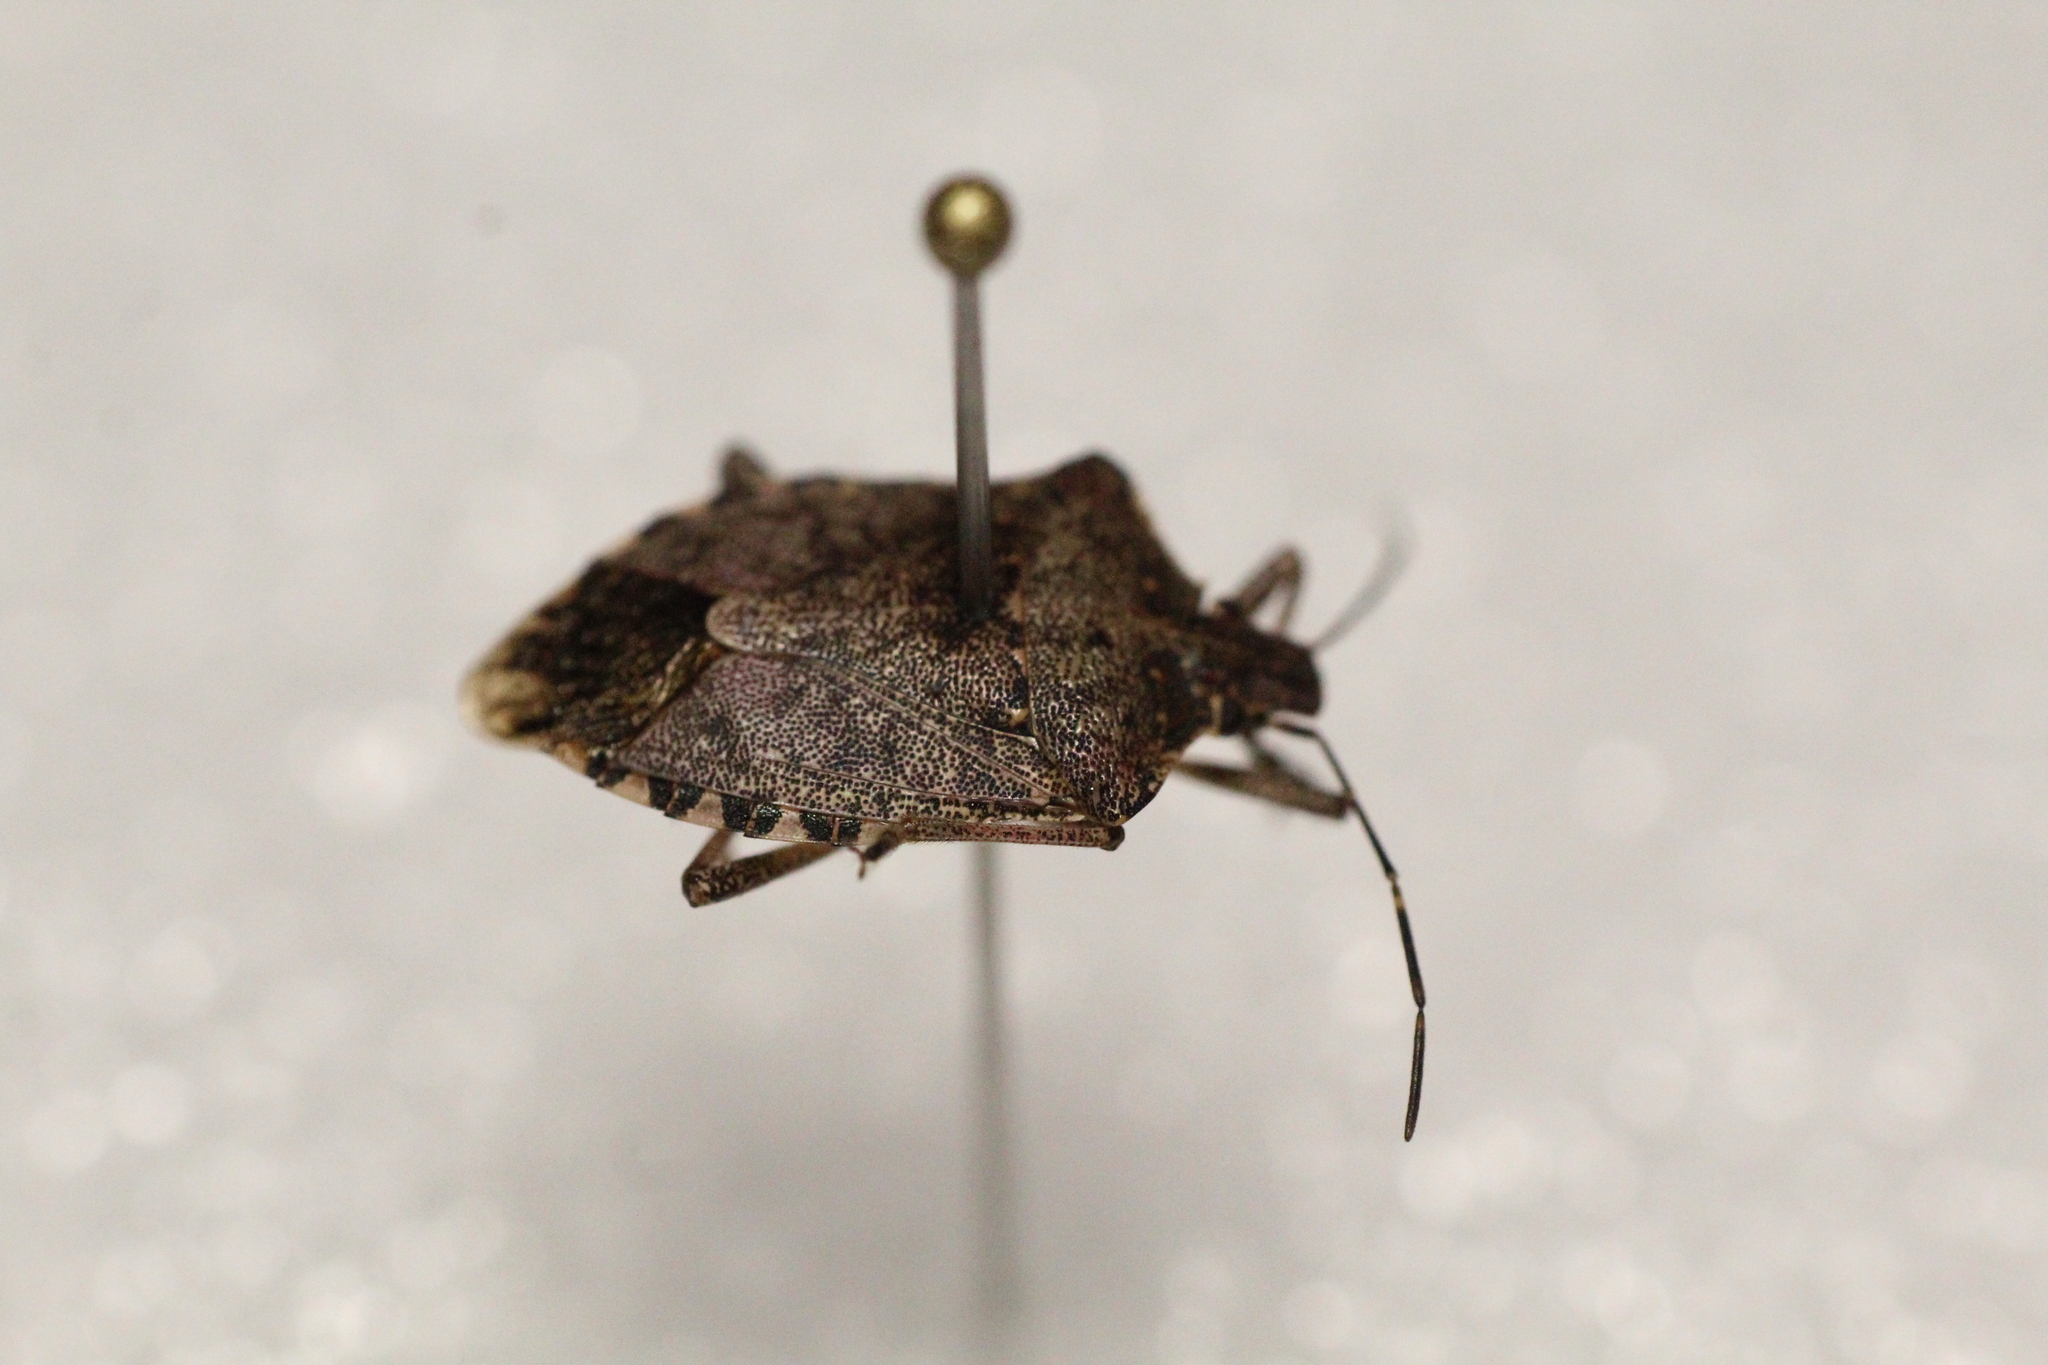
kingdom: Animalia
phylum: Arthropoda
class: Insecta
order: Hemiptera
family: Pentatomidae
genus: Halyomorpha
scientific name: Halyomorpha halys
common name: Brown marmorated stink bug
